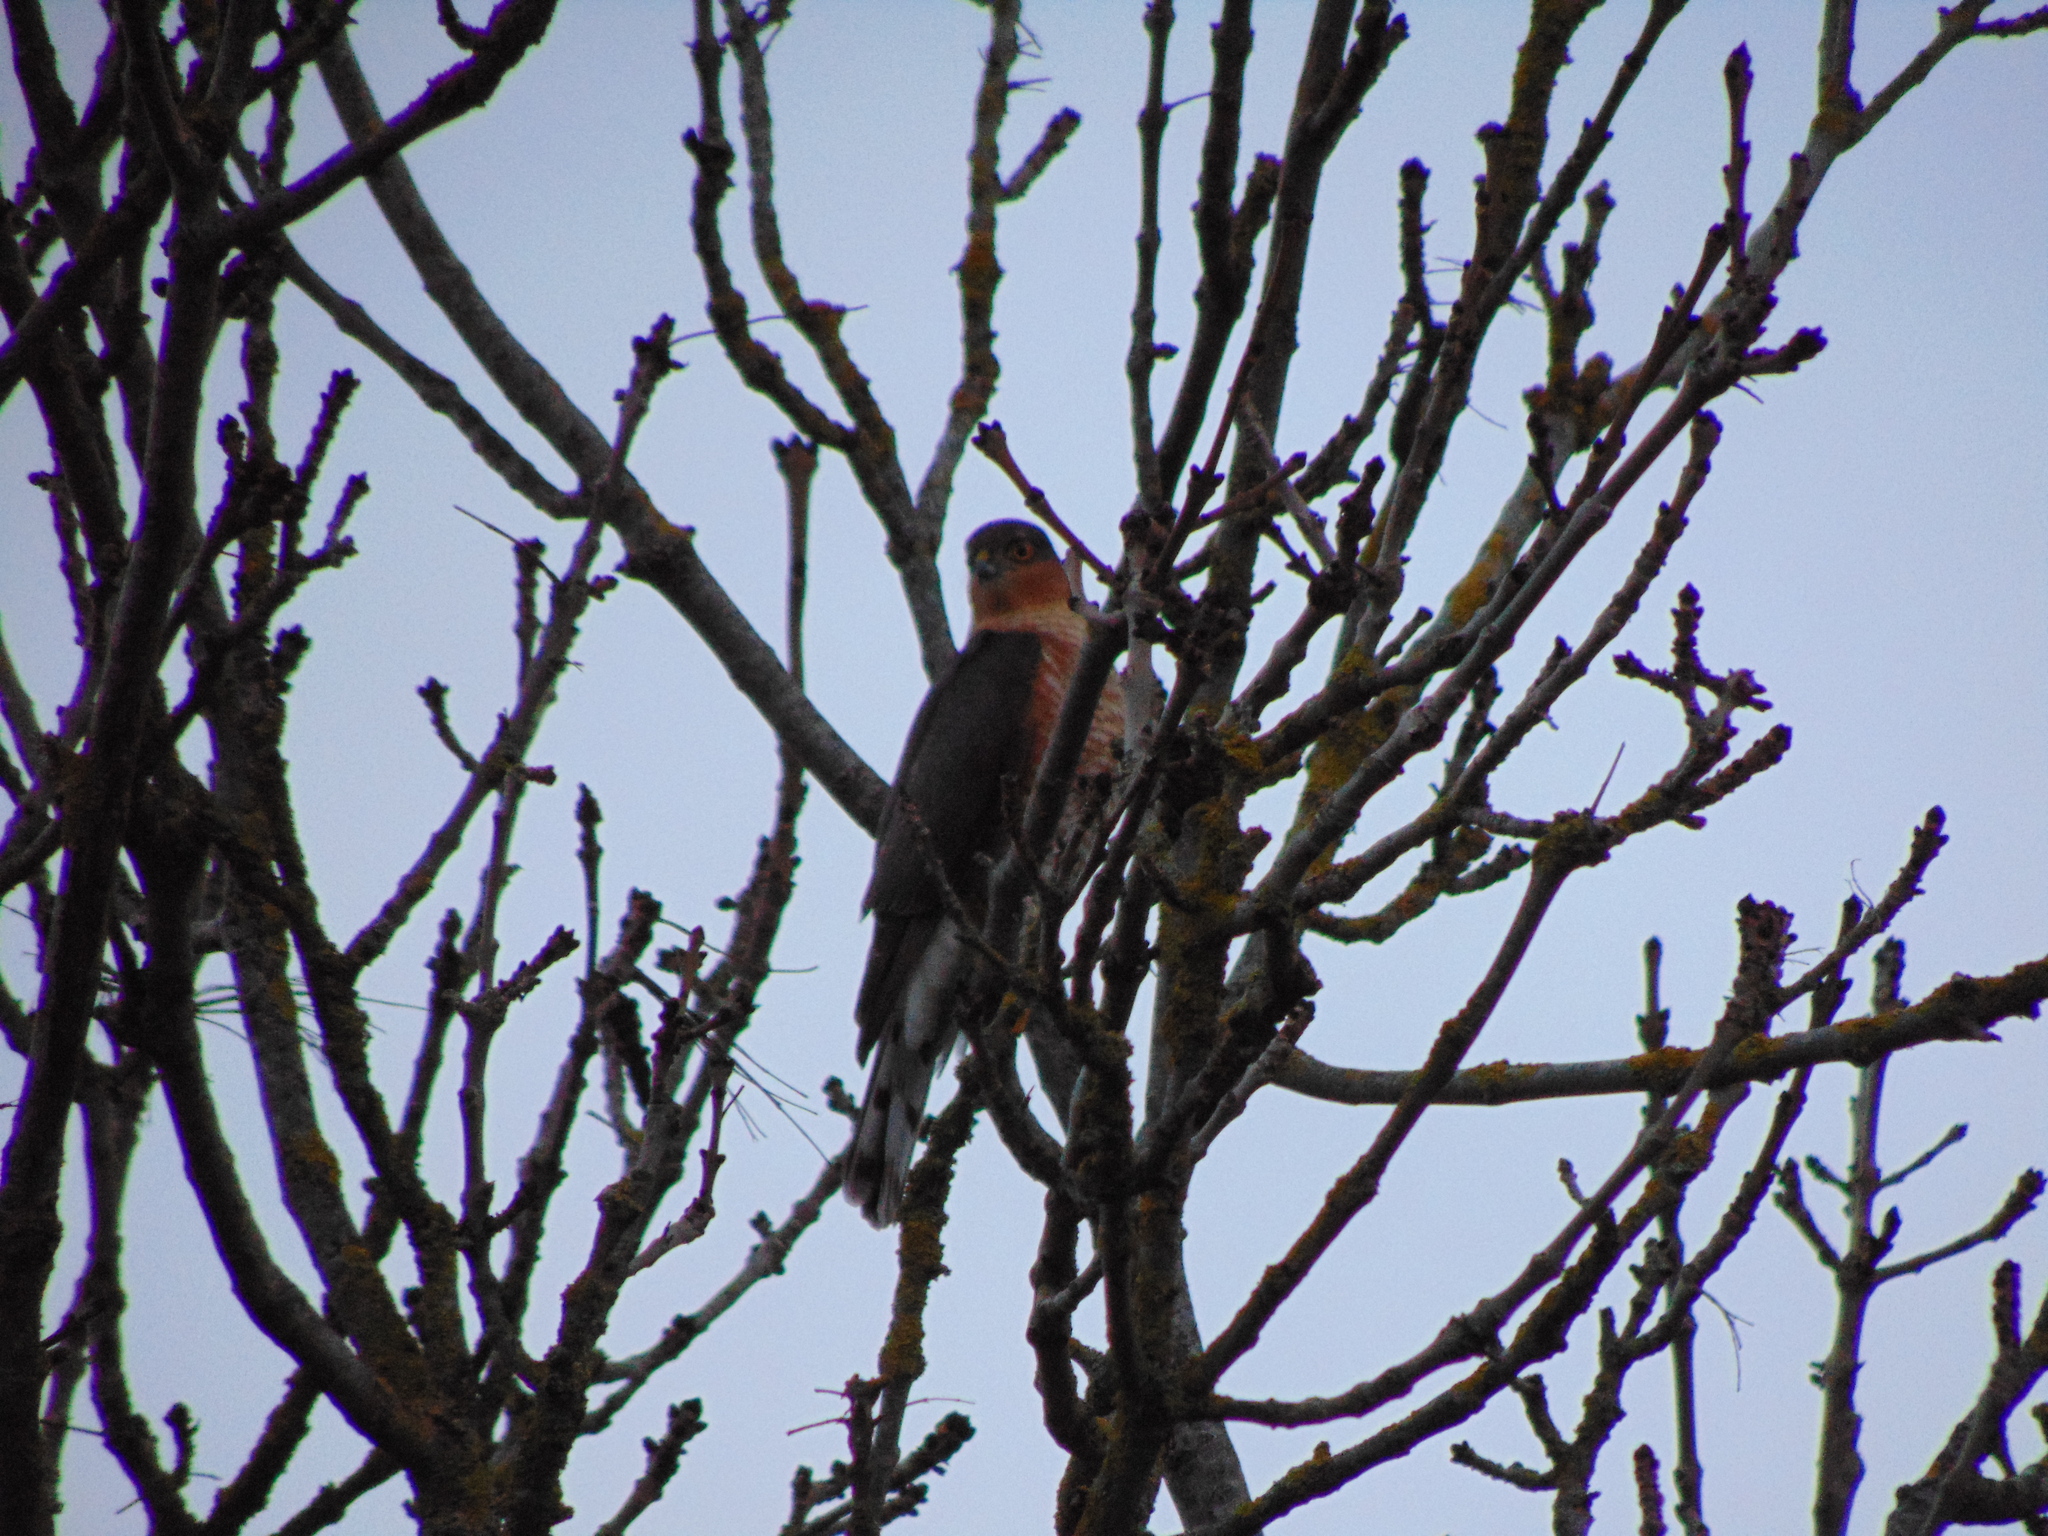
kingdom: Animalia
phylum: Chordata
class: Aves
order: Accipitriformes
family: Accipitridae
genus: Accipiter
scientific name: Accipiter nisus
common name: Eurasian sparrowhawk
